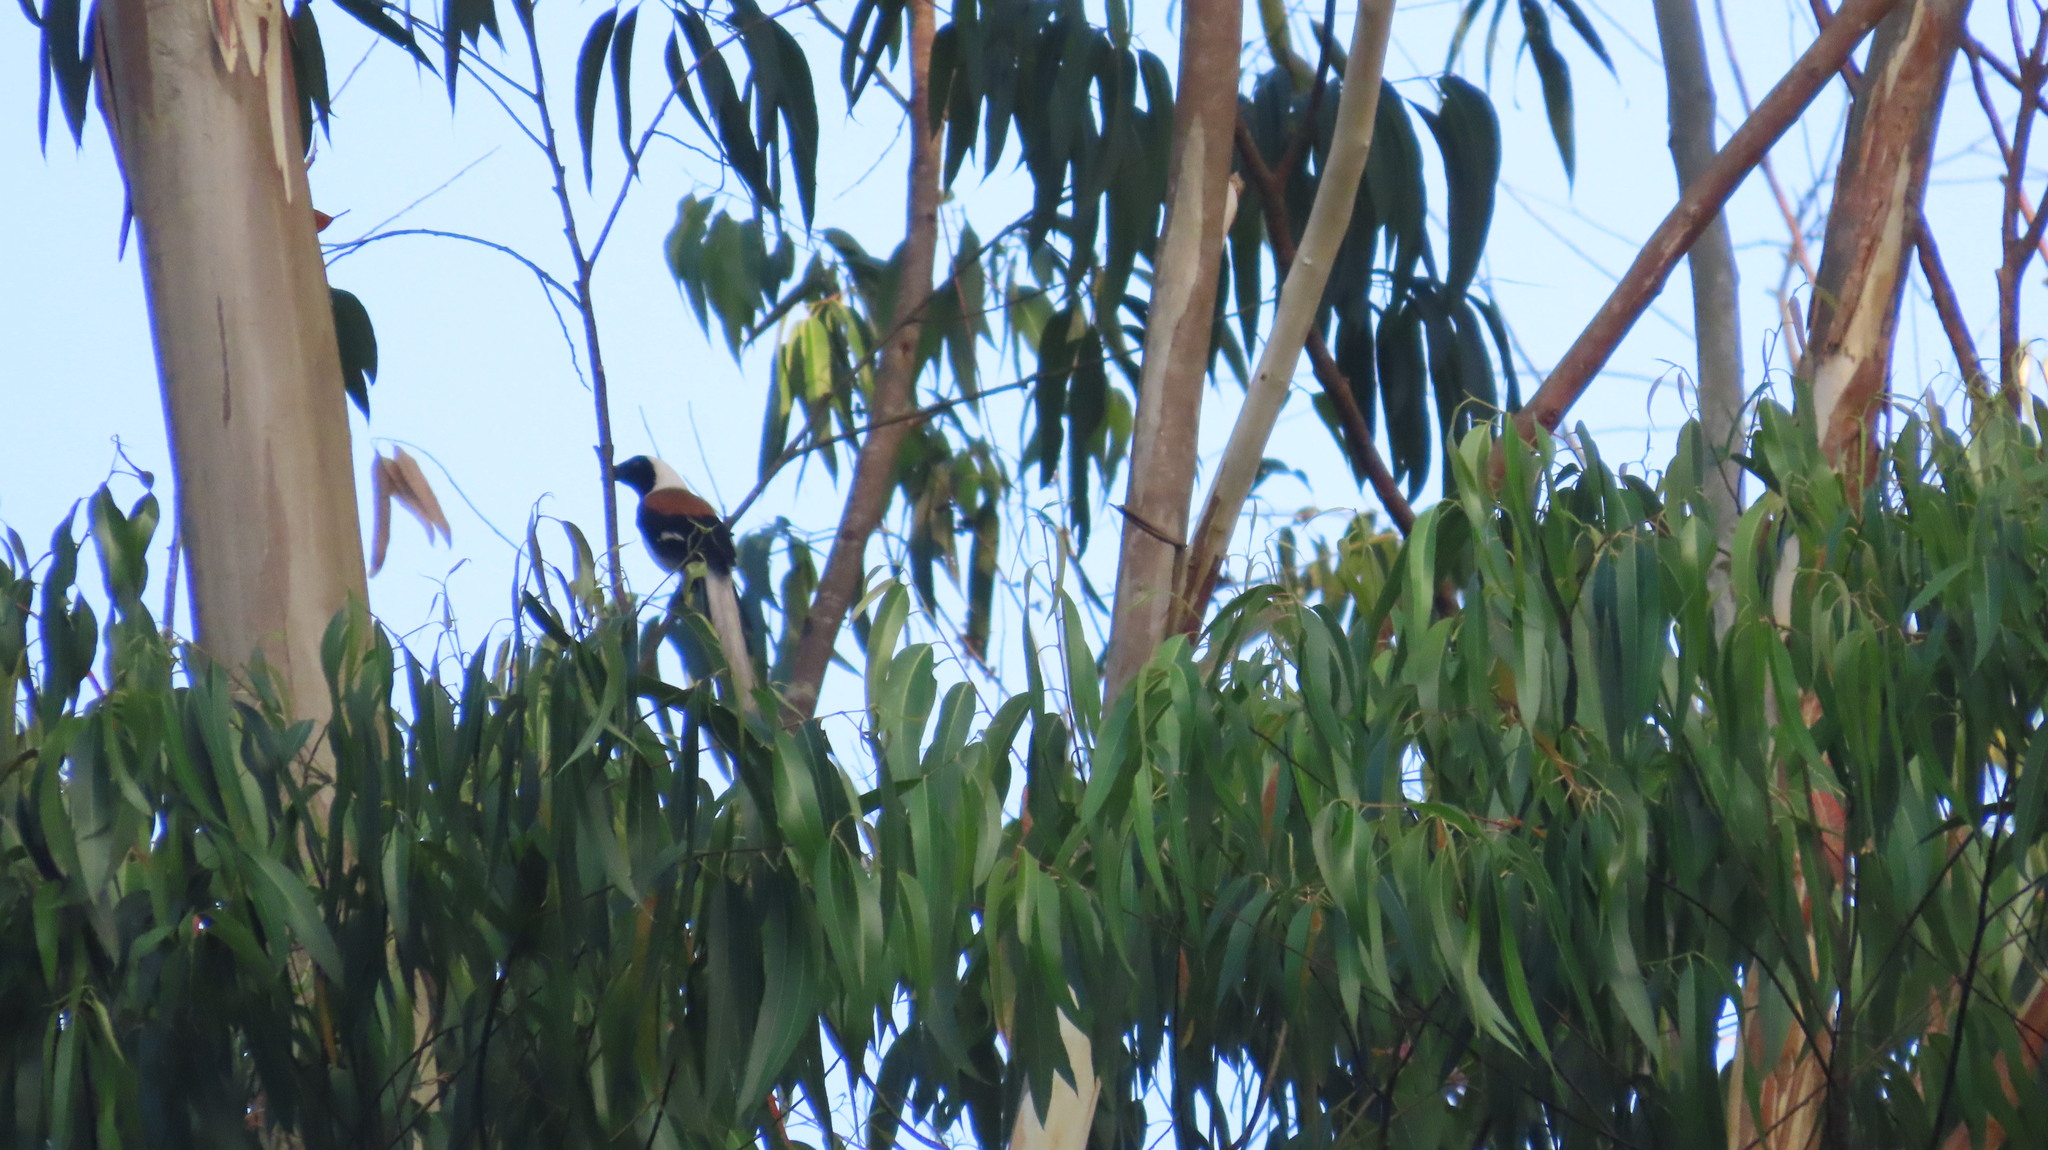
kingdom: Animalia
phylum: Chordata
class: Aves
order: Passeriformes
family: Corvidae
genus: Dendrocitta
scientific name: Dendrocitta leucogastra
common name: White-bellied treepie
